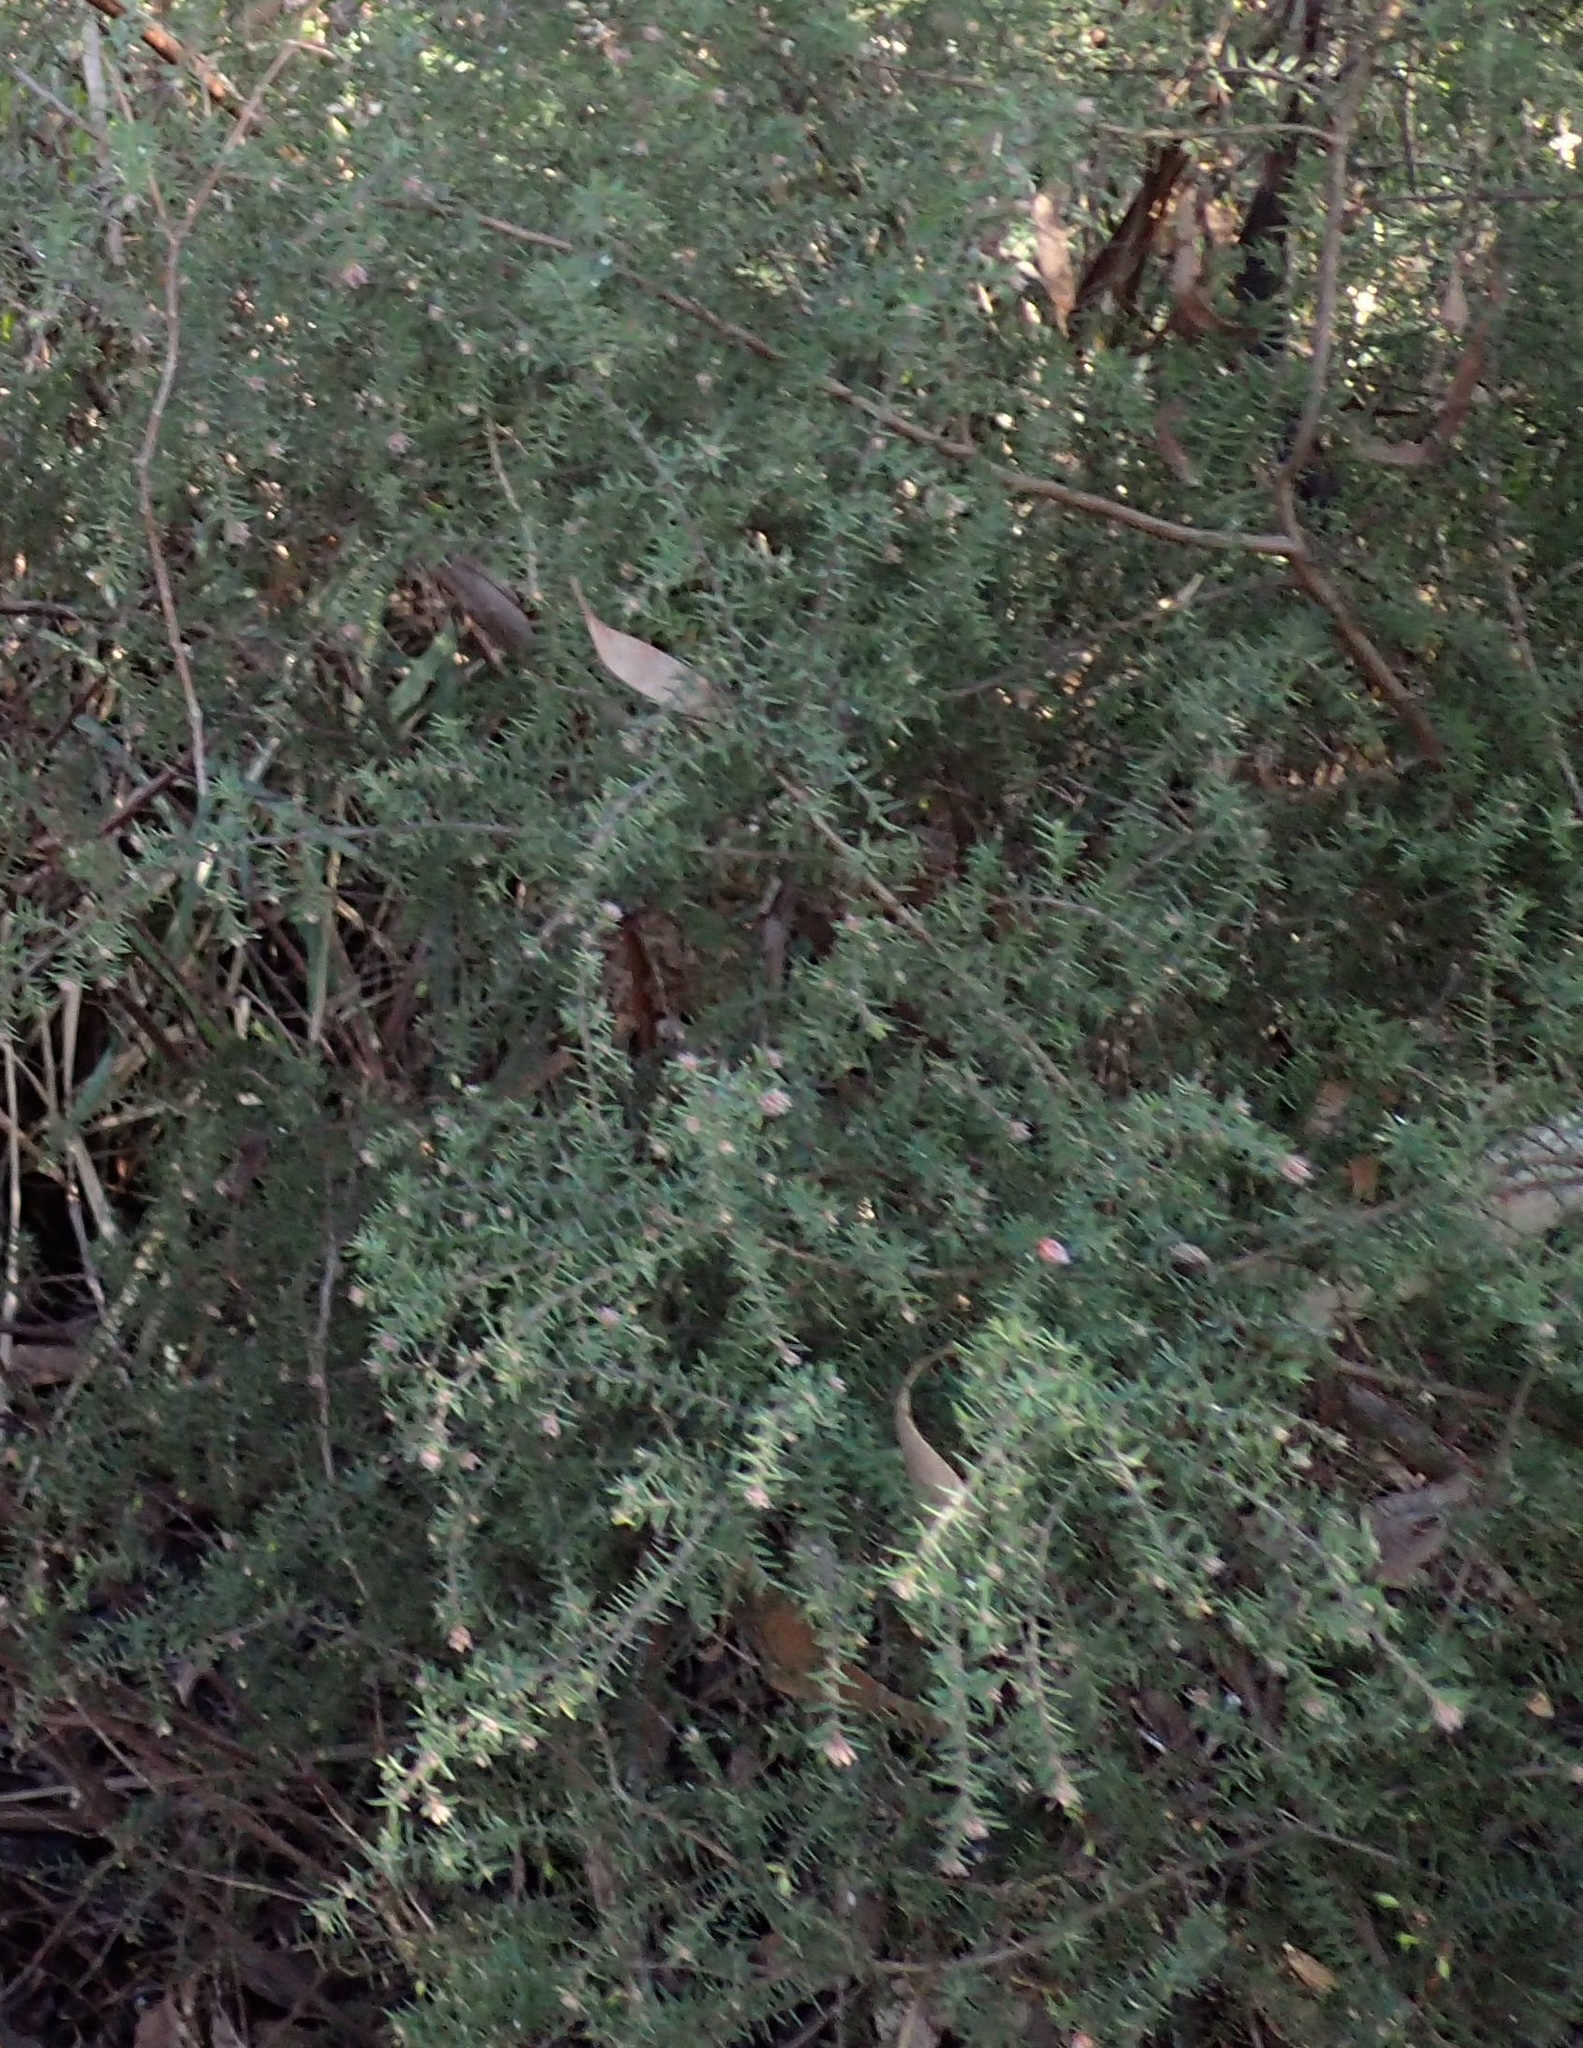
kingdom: Plantae
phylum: Tracheophyta
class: Magnoliopsida
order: Fabales
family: Fabaceae
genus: Pultenaea
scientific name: Pultenaea juniperina
